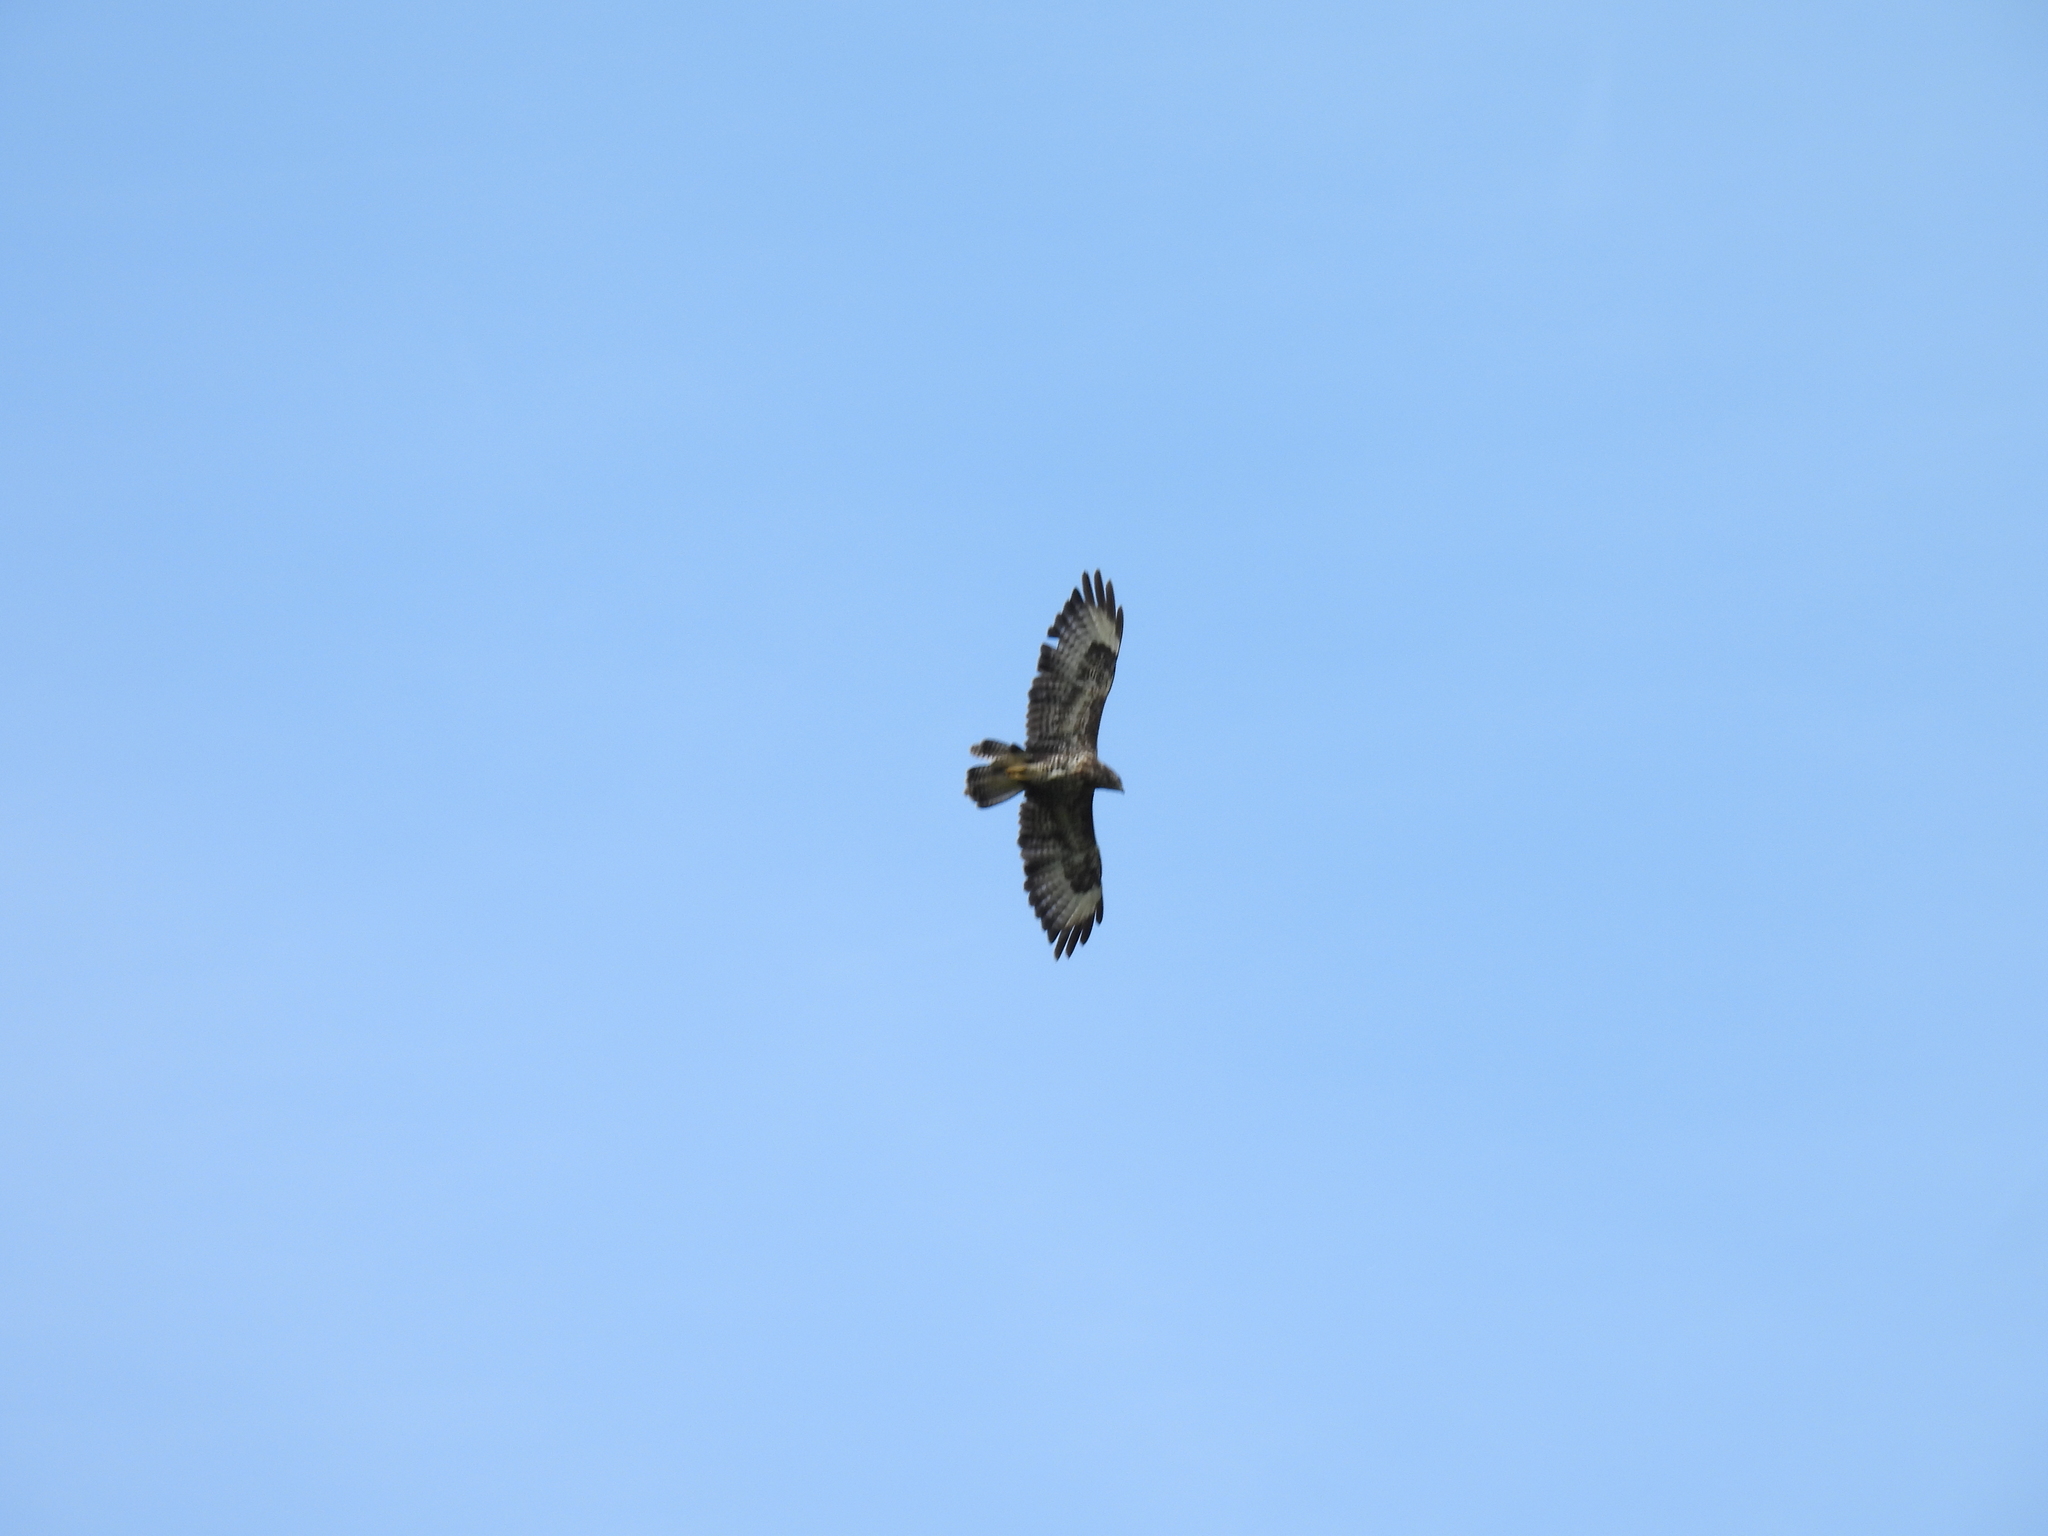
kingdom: Animalia
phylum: Chordata
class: Aves
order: Accipitriformes
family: Accipitridae
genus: Buteo
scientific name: Buteo buteo
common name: Common buzzard
